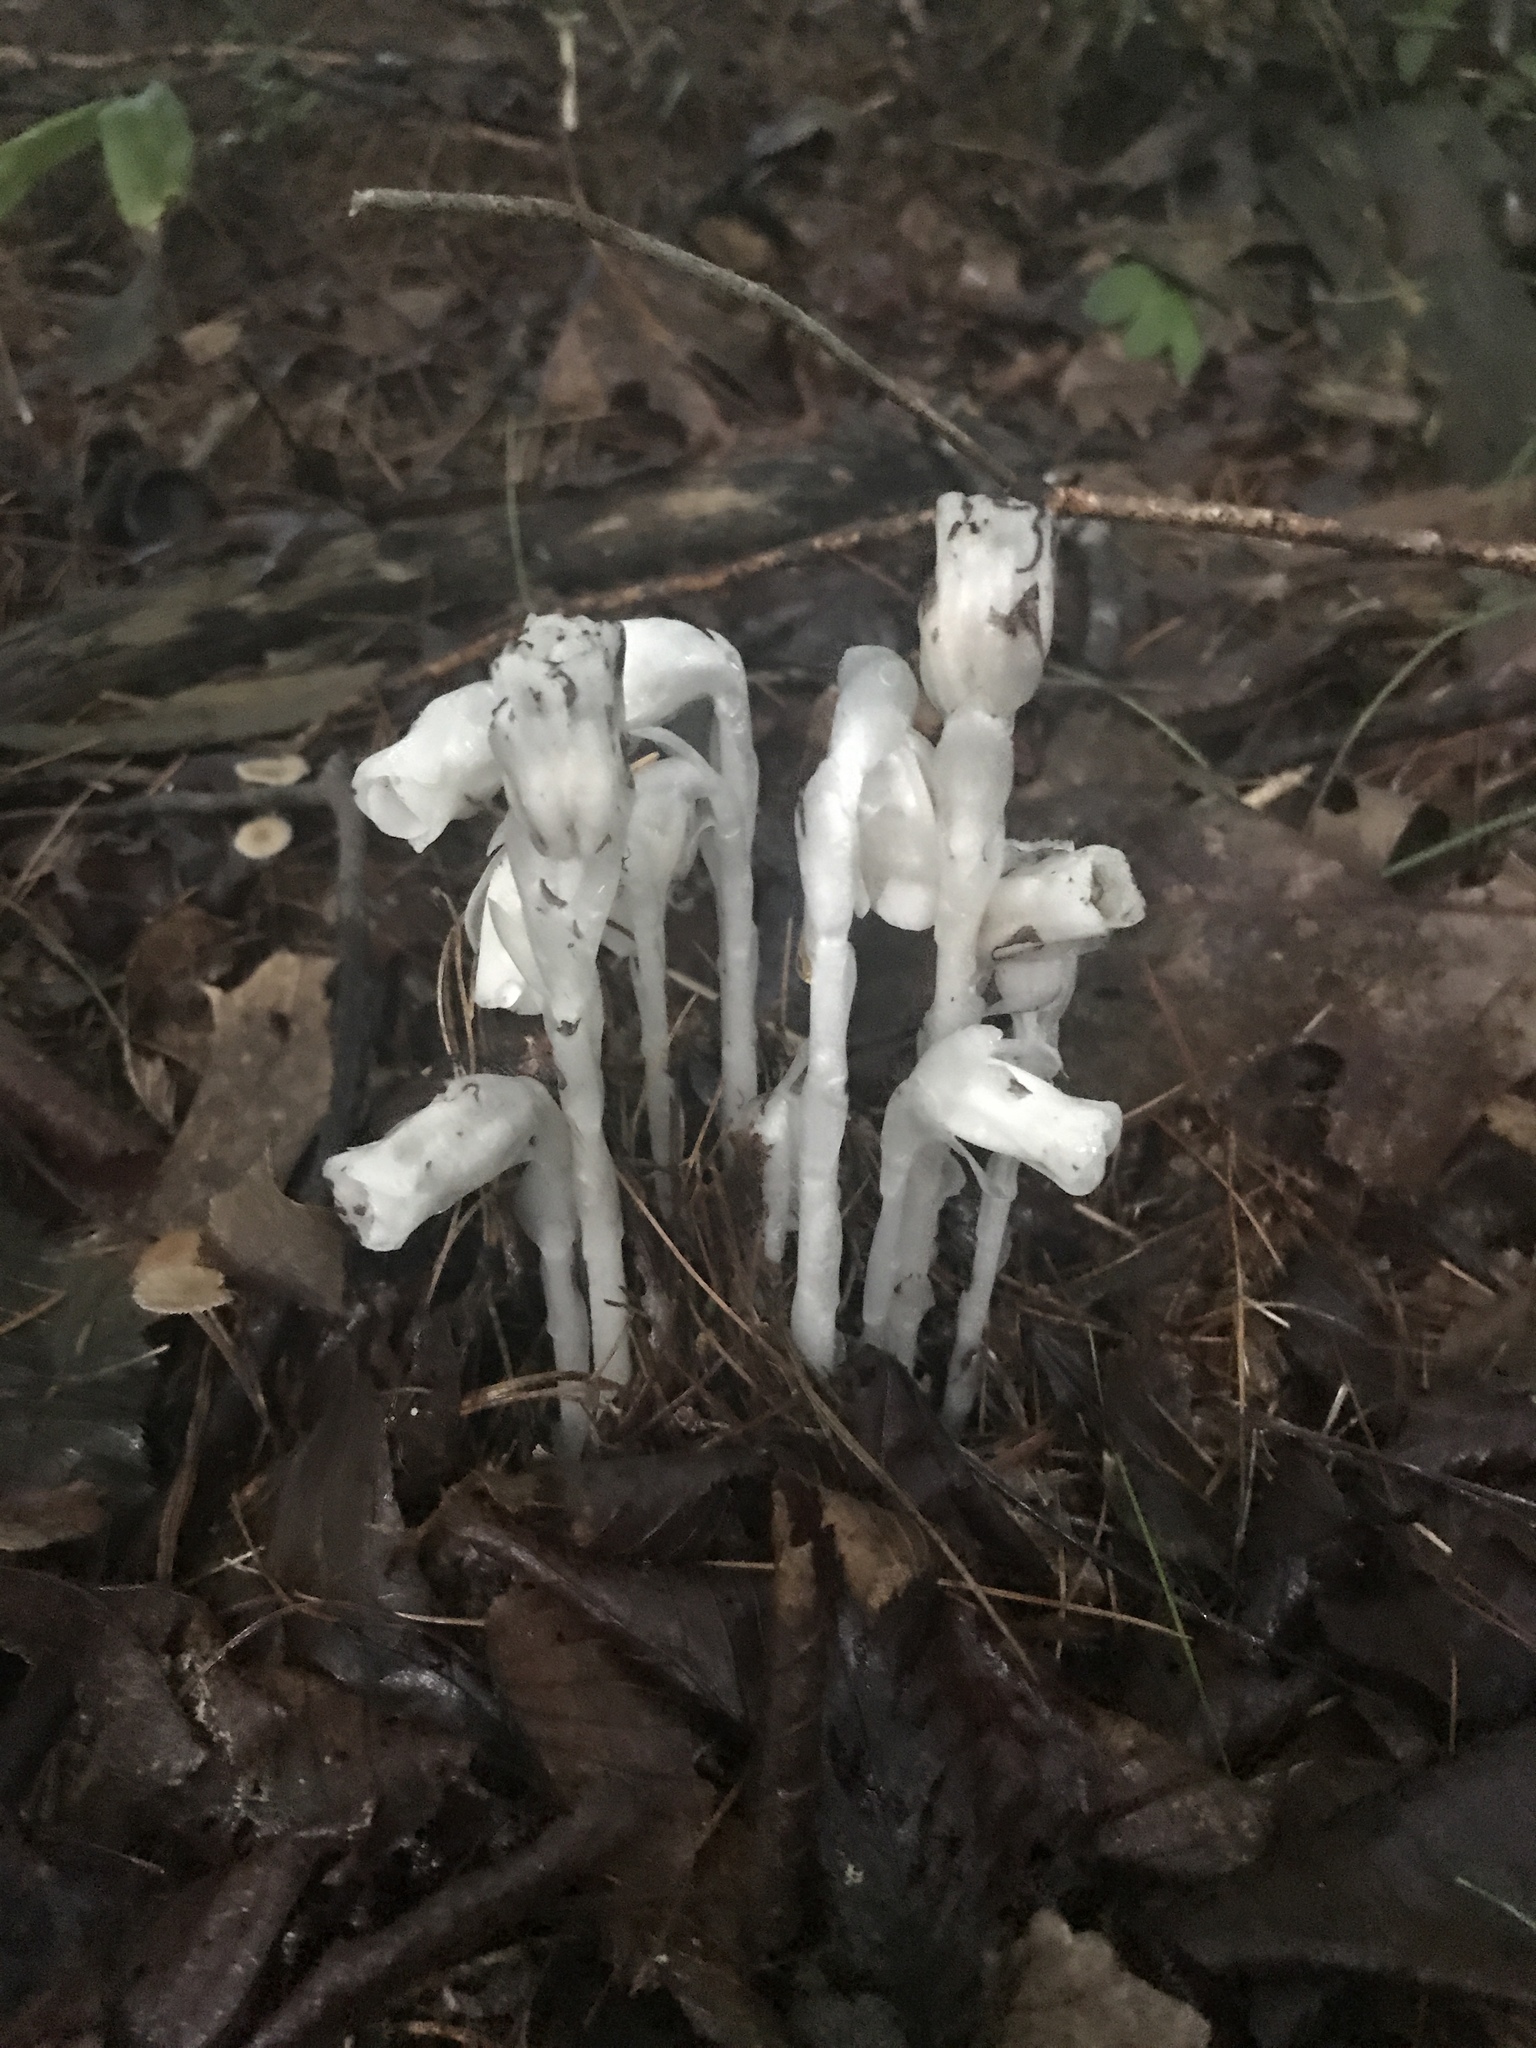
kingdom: Plantae
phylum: Tracheophyta
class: Magnoliopsida
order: Ericales
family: Ericaceae
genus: Monotropa
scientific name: Monotropa uniflora
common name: Convulsion root
